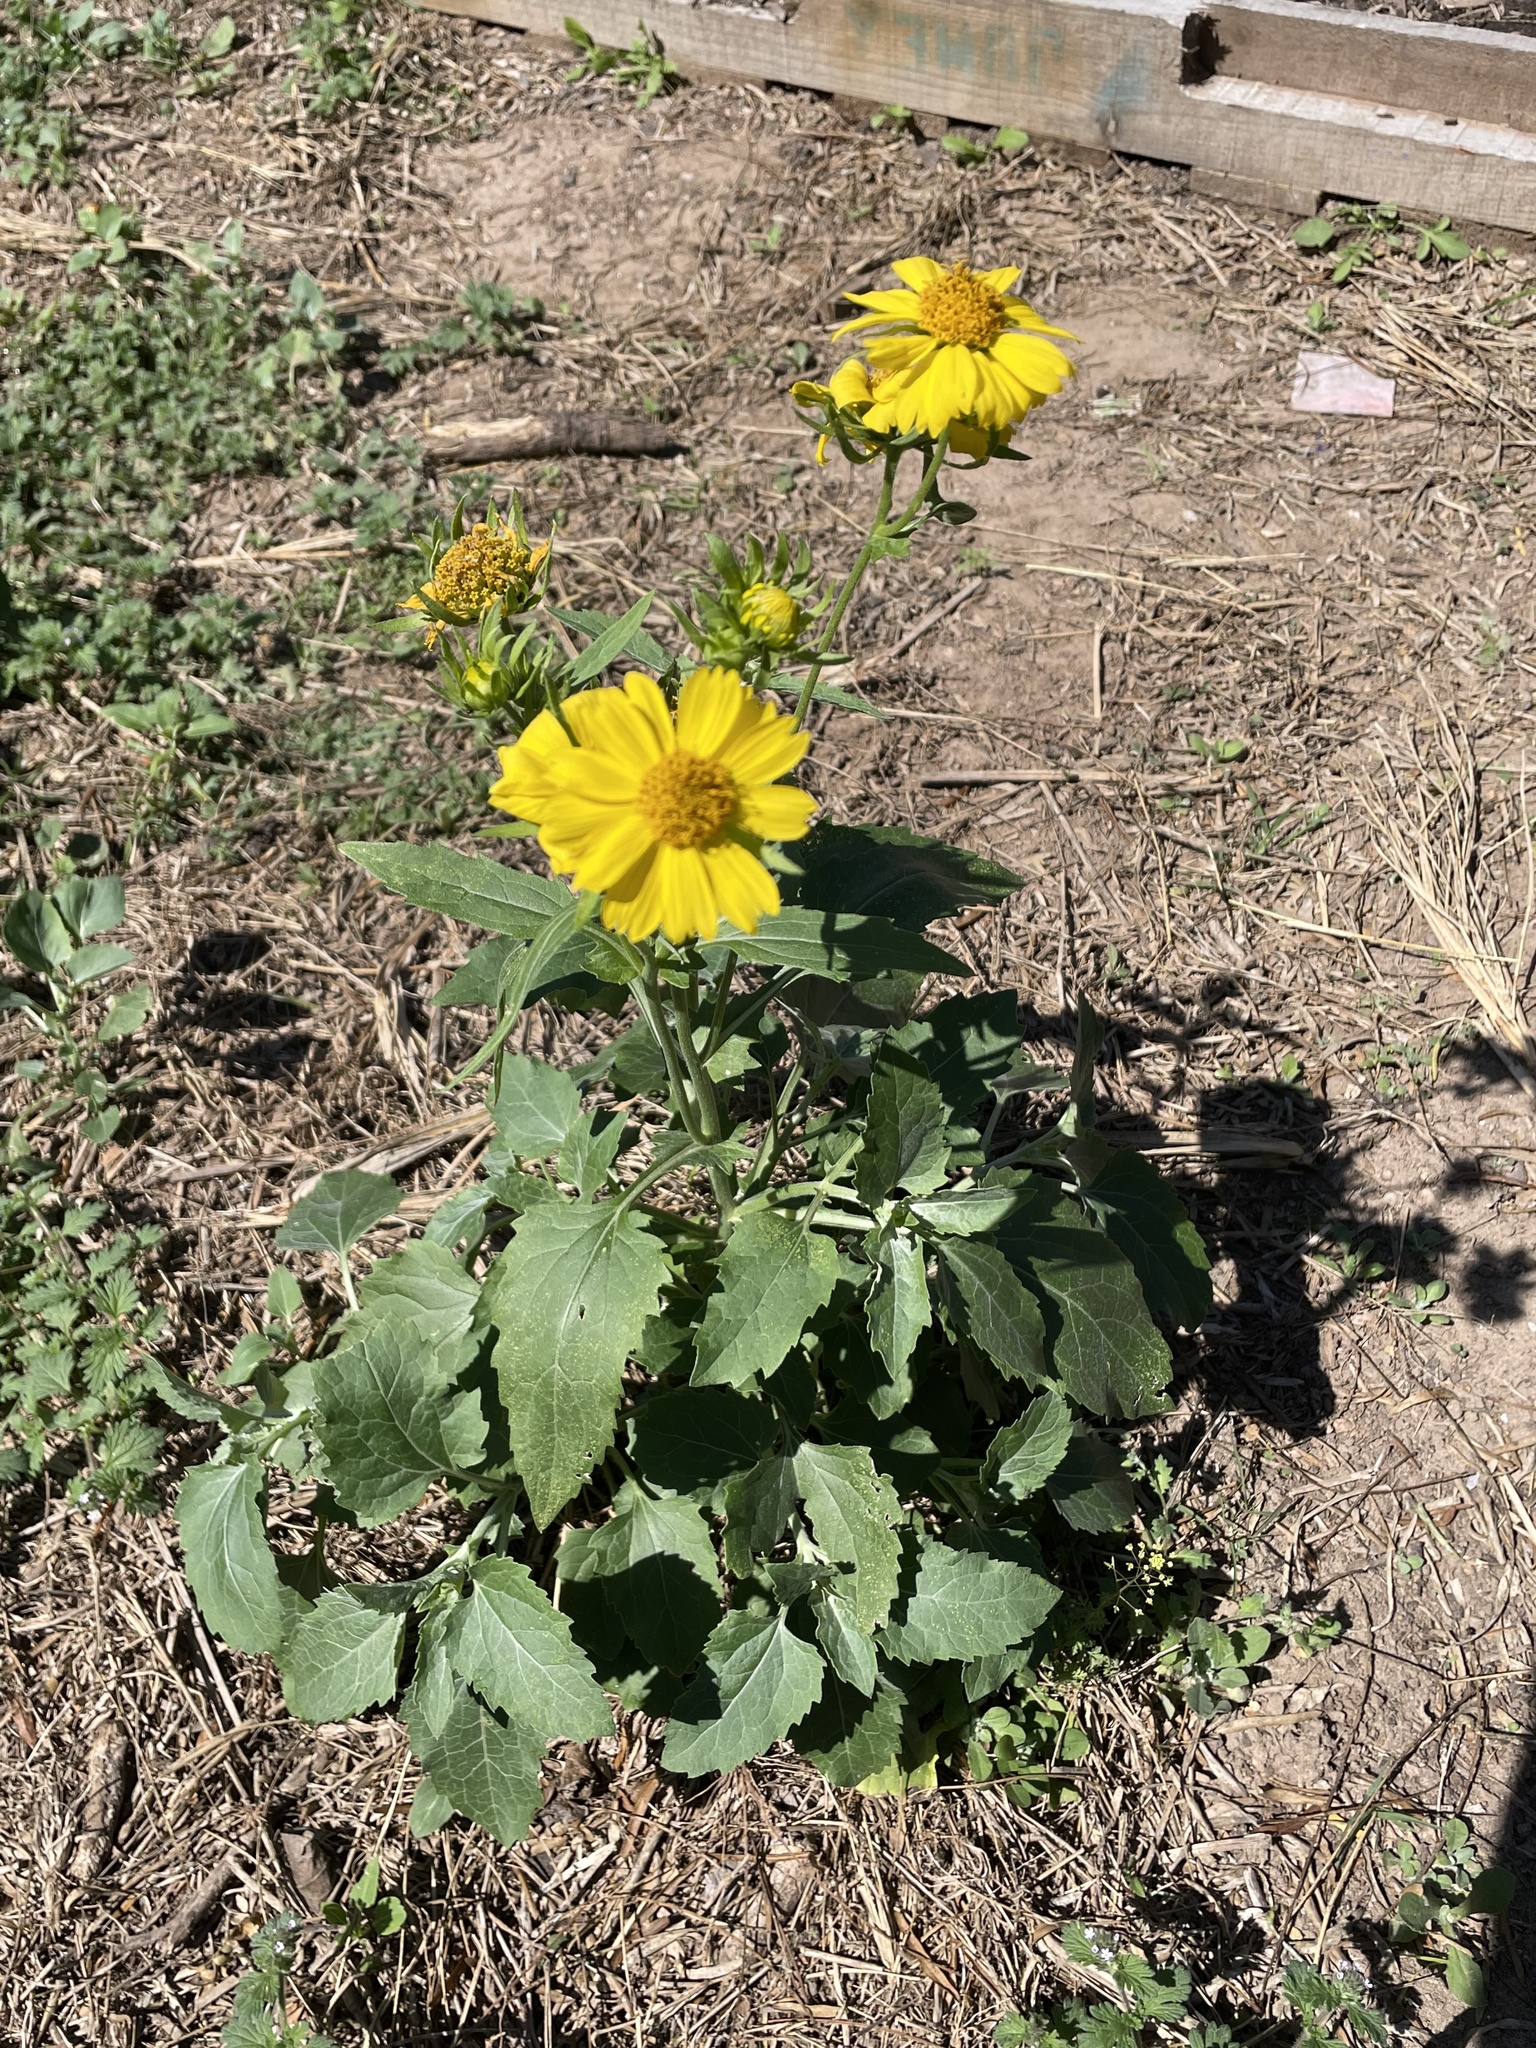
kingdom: Plantae
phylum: Tracheophyta
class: Magnoliopsida
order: Asterales
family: Asteraceae
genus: Verbesina
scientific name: Verbesina encelioides
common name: Golden crownbeard
